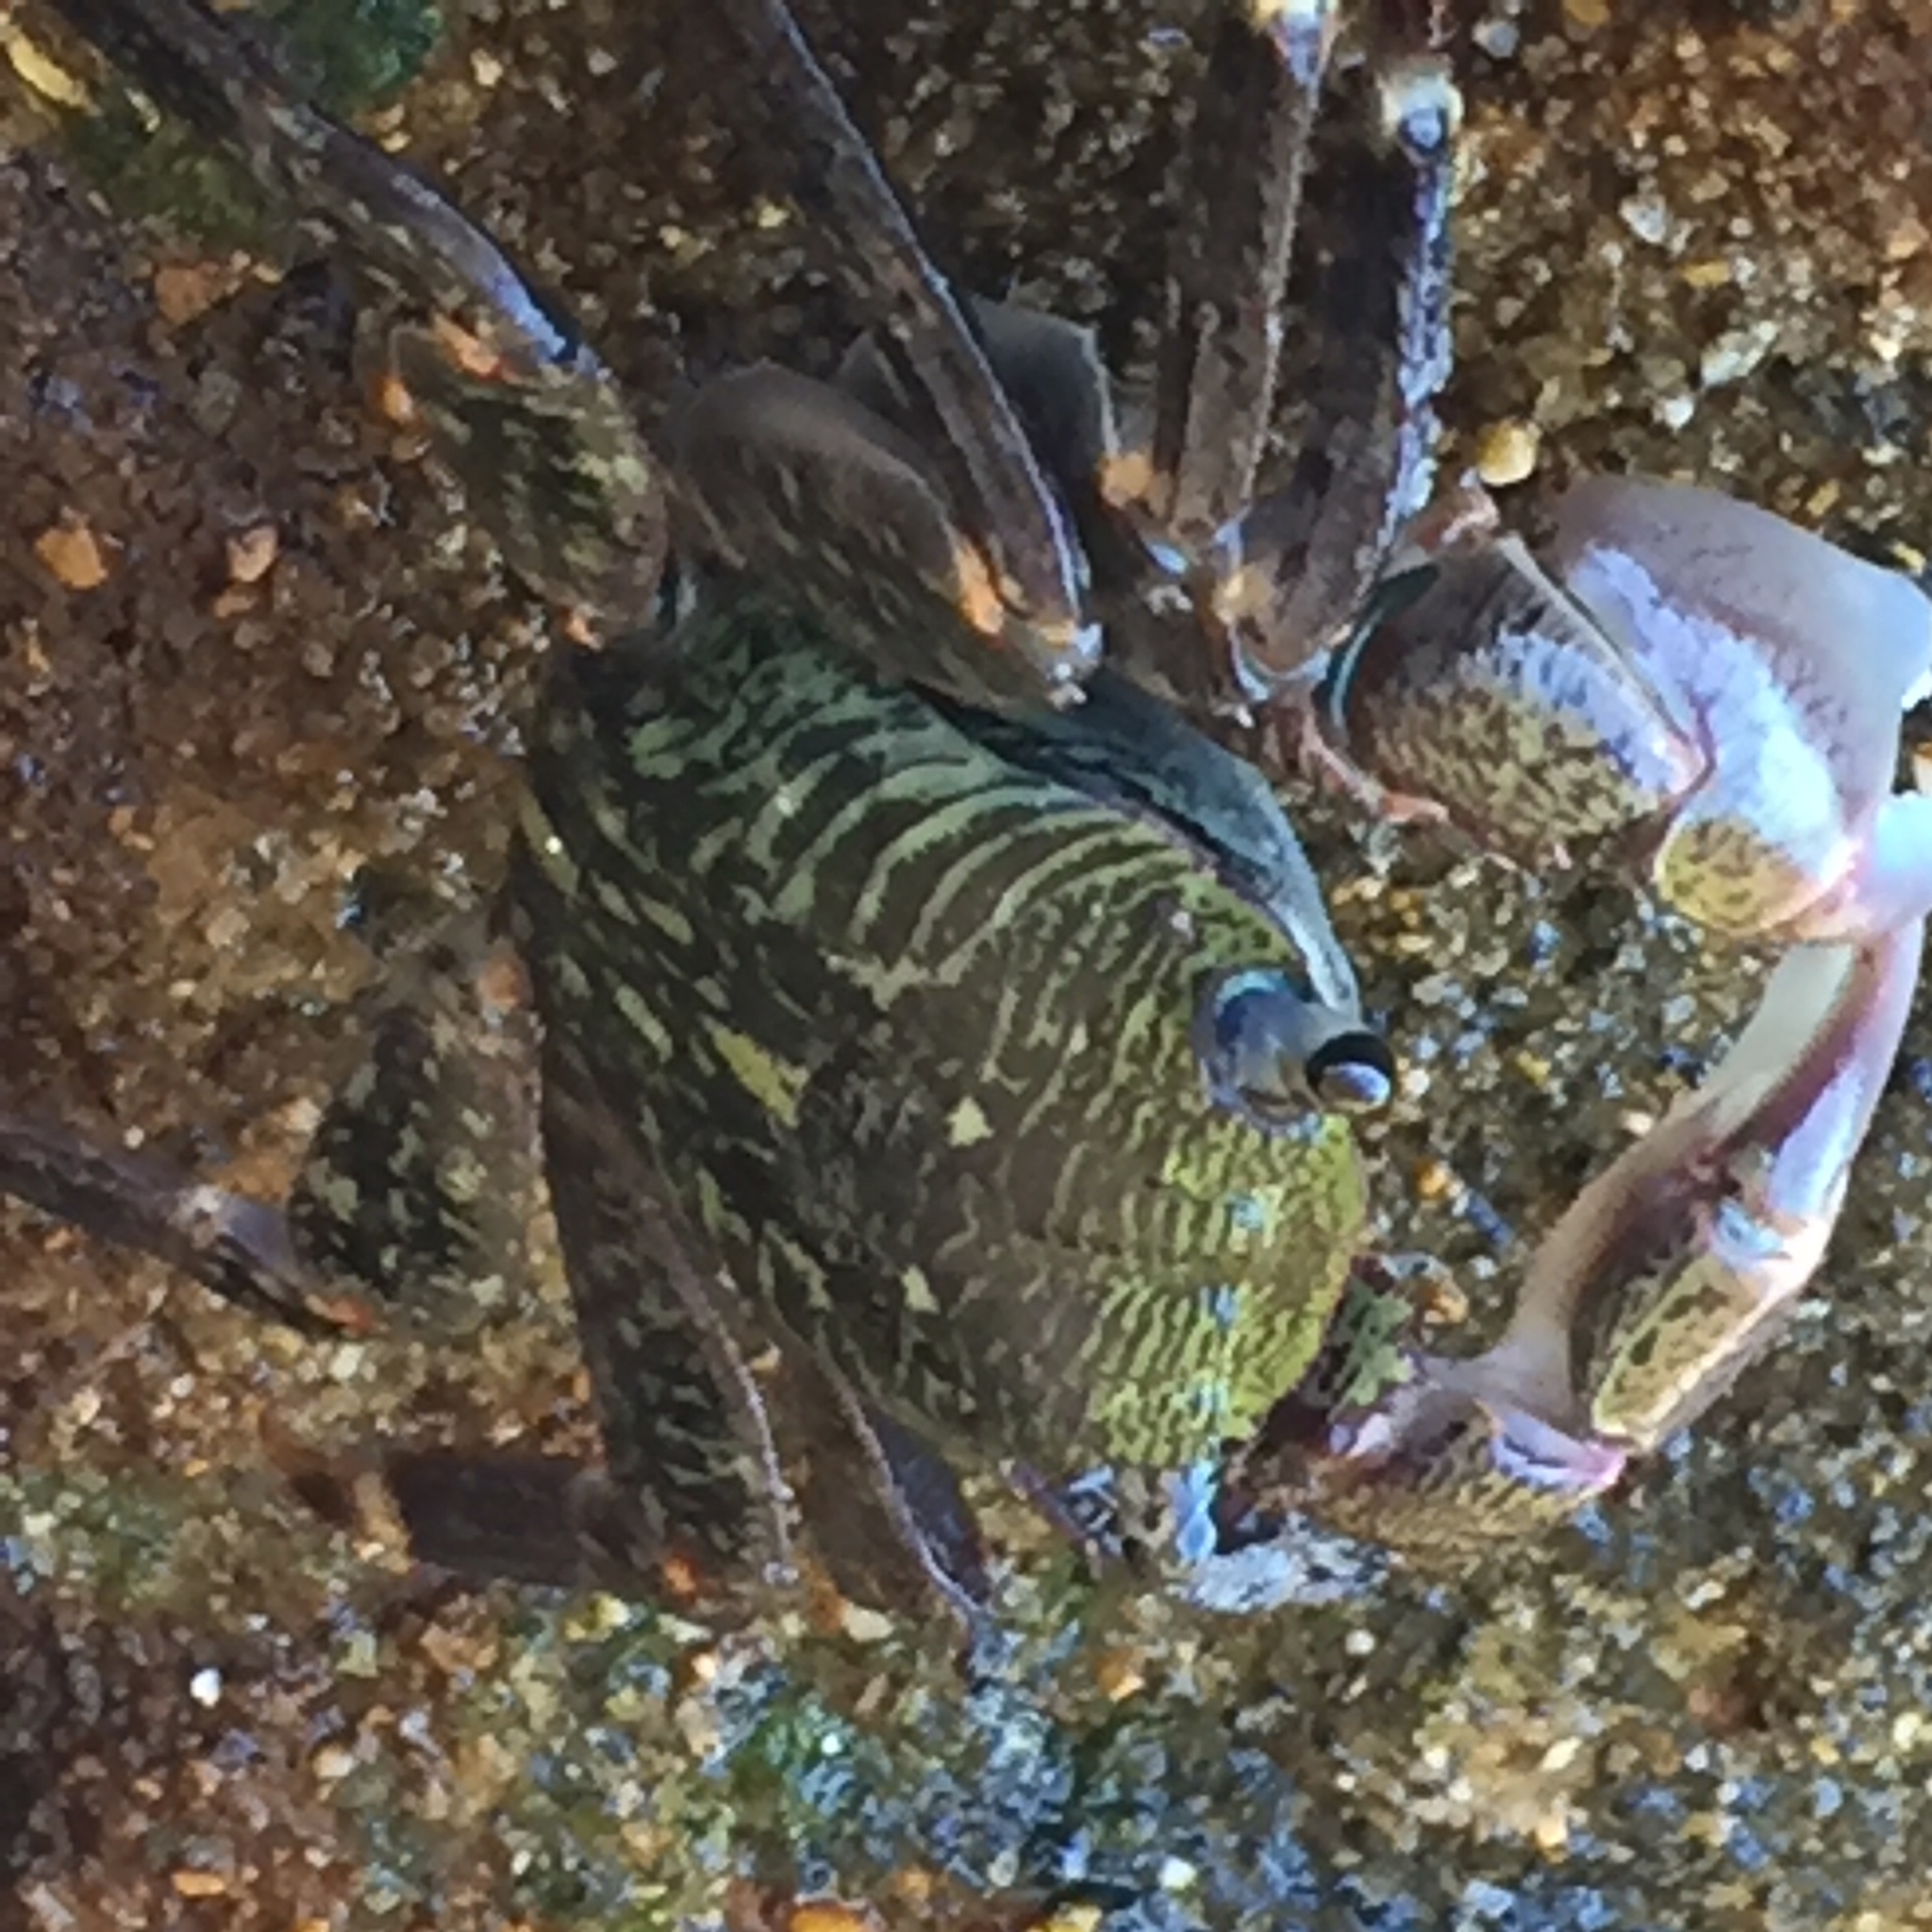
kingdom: Animalia
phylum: Arthropoda
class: Malacostraca
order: Decapoda
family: Grapsidae
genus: Pachygrapsus
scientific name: Pachygrapsus crassipes
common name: Striped shore crab
